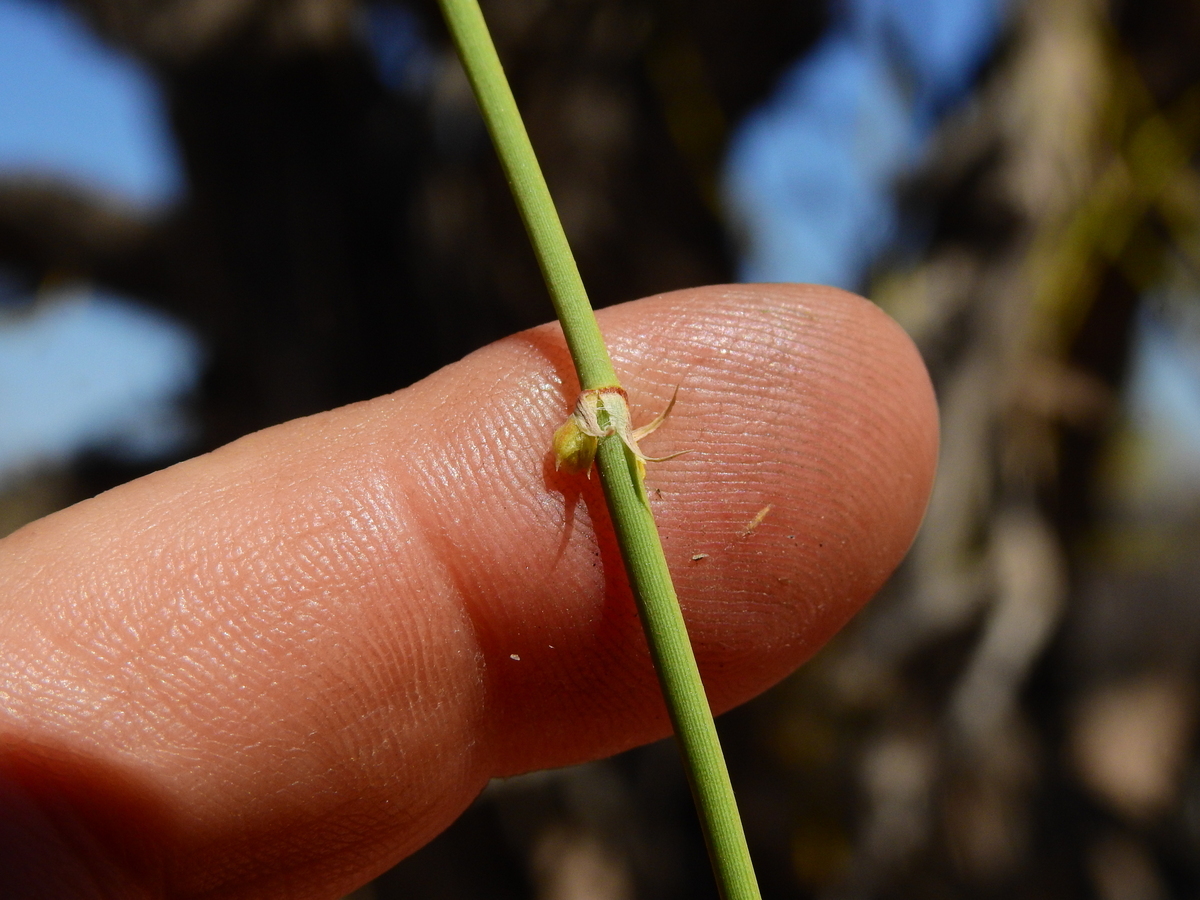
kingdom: Plantae
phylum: Tracheophyta
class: Gnetopsida
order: Ephedrales
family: Ephedraceae
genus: Ephedra
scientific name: Ephedra boelckei
